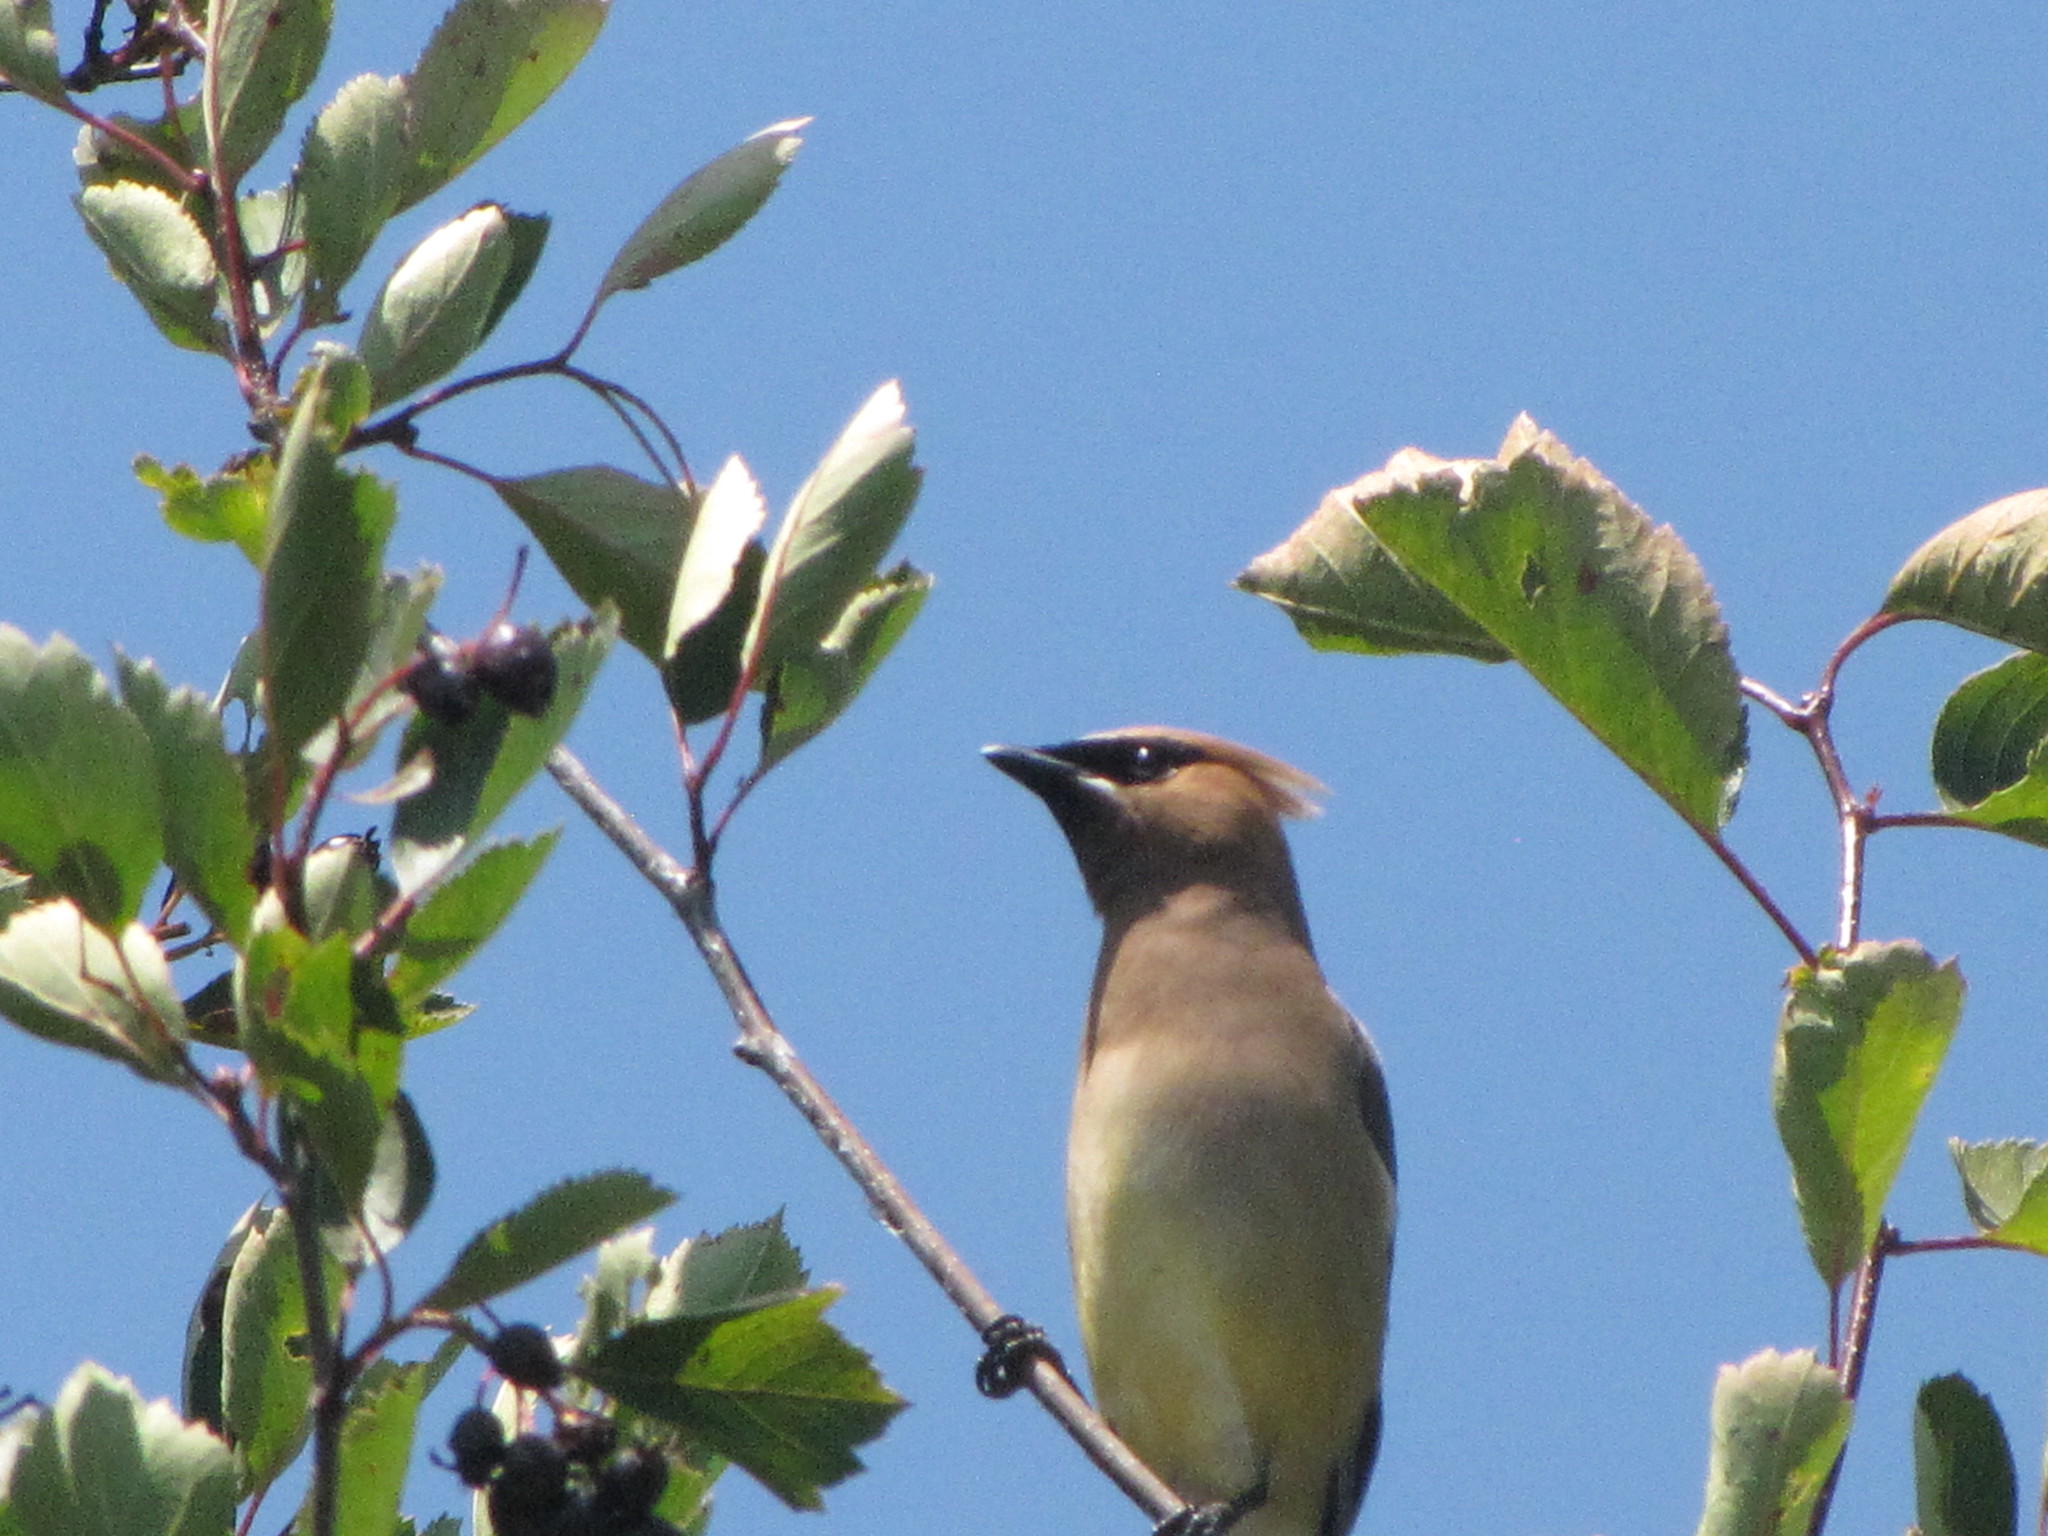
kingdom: Animalia
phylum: Chordata
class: Aves
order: Passeriformes
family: Bombycillidae
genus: Bombycilla
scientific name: Bombycilla cedrorum
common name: Cedar waxwing
